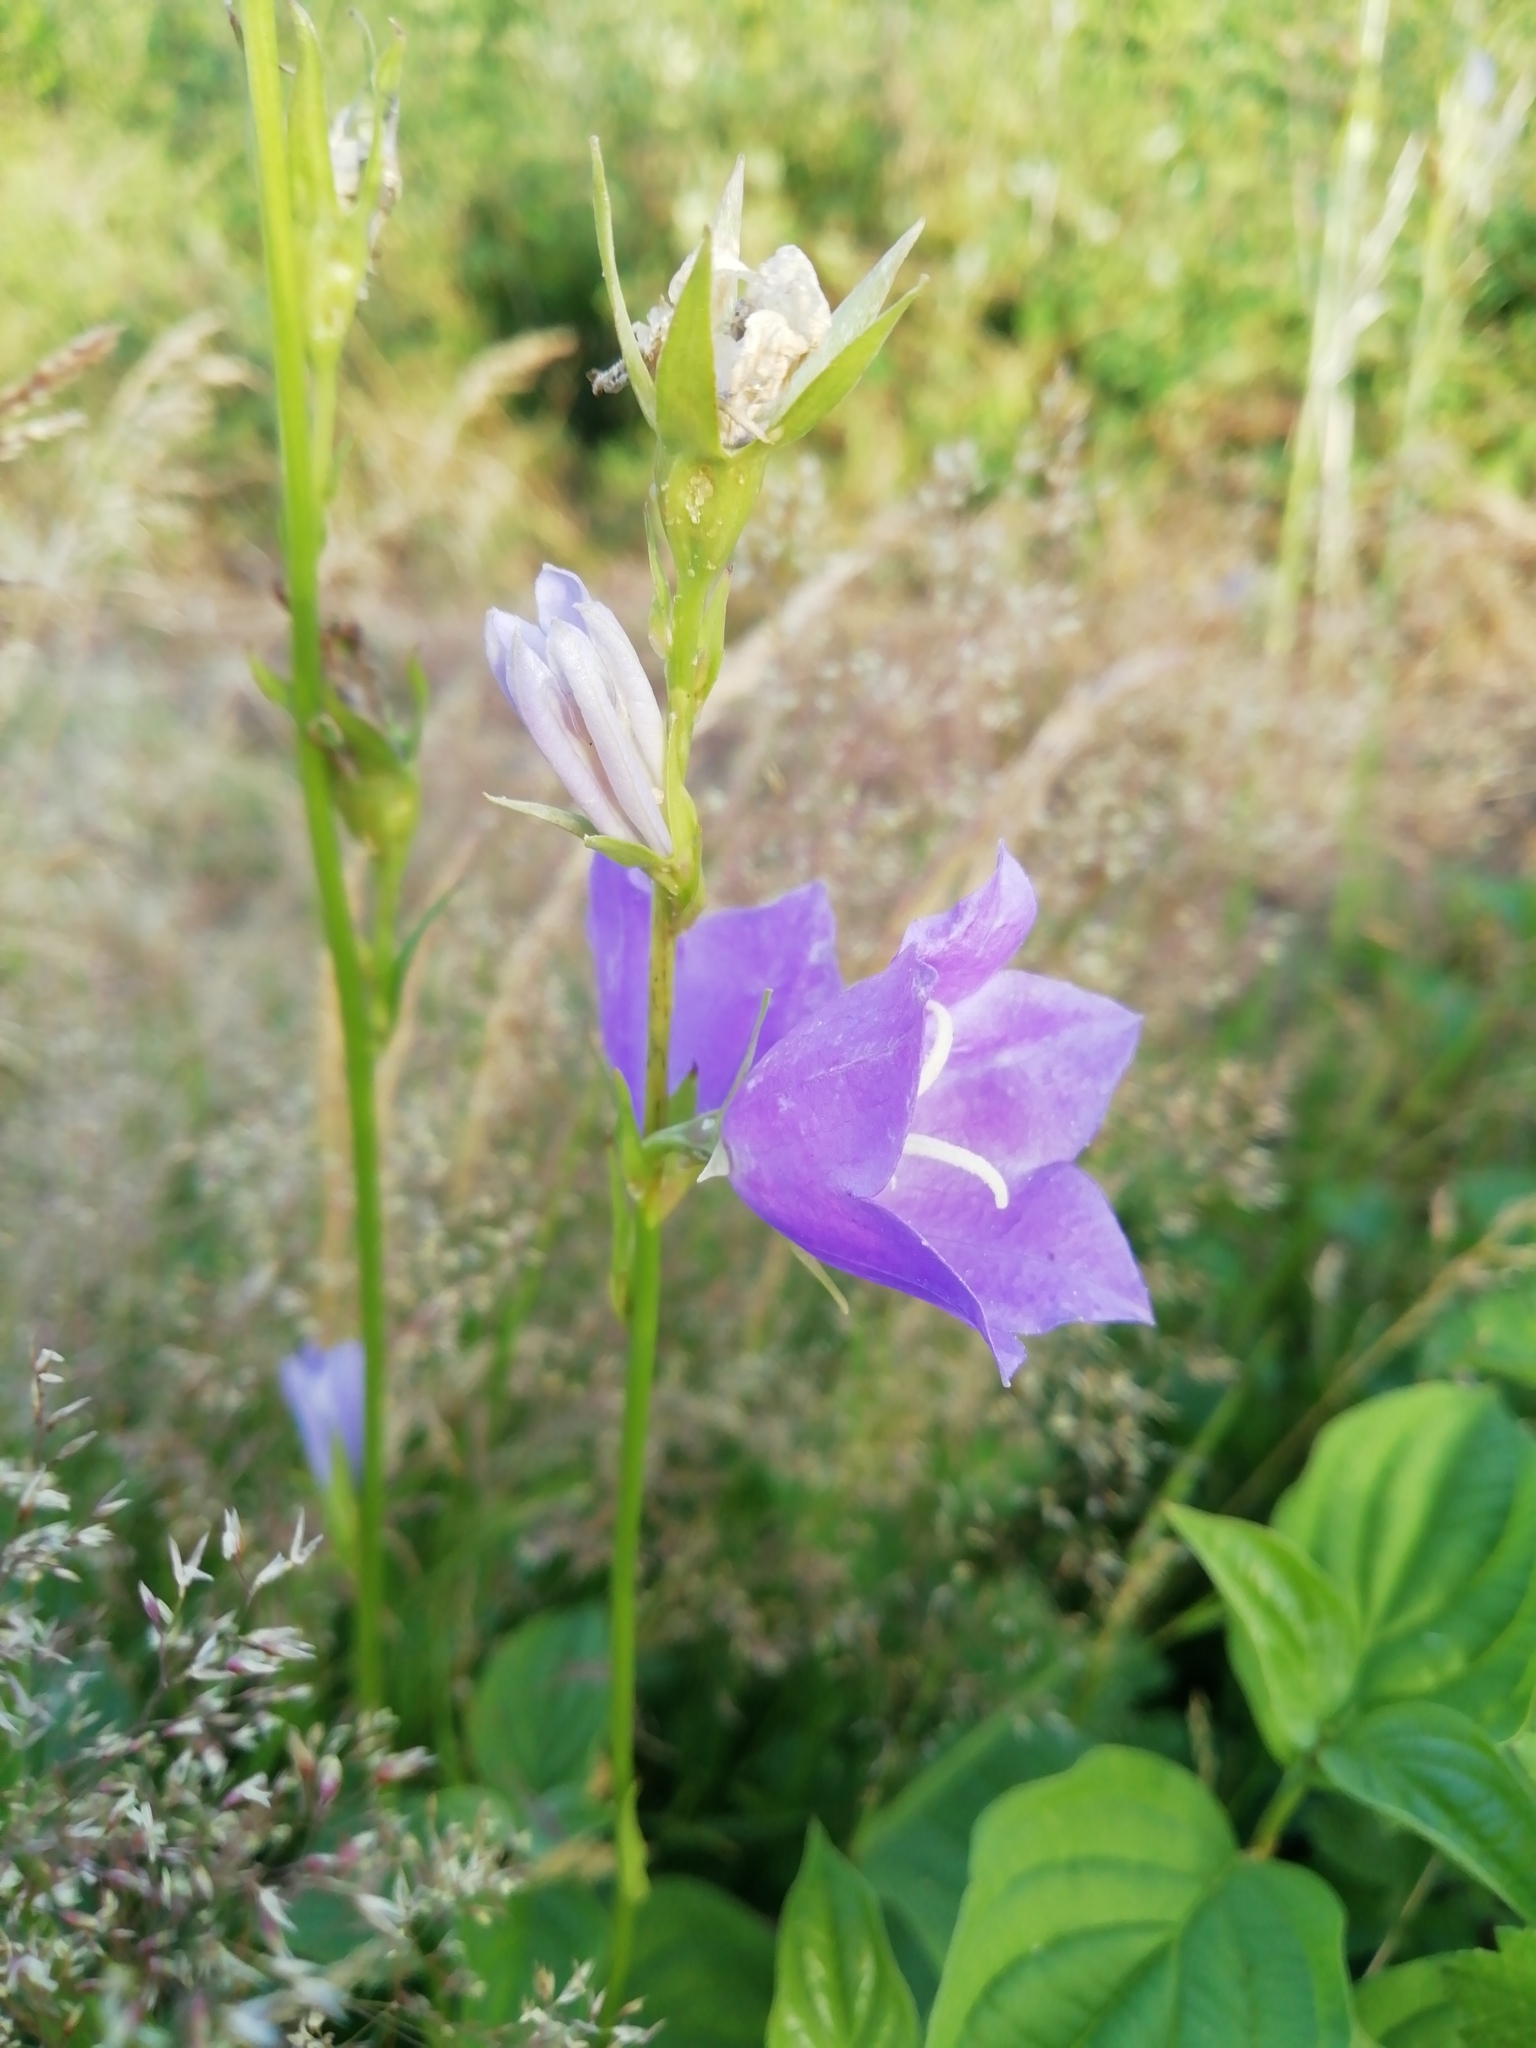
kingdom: Plantae
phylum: Tracheophyta
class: Magnoliopsida
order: Asterales
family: Campanulaceae
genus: Campanula
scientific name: Campanula persicifolia
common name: Peach-leaved bellflower
